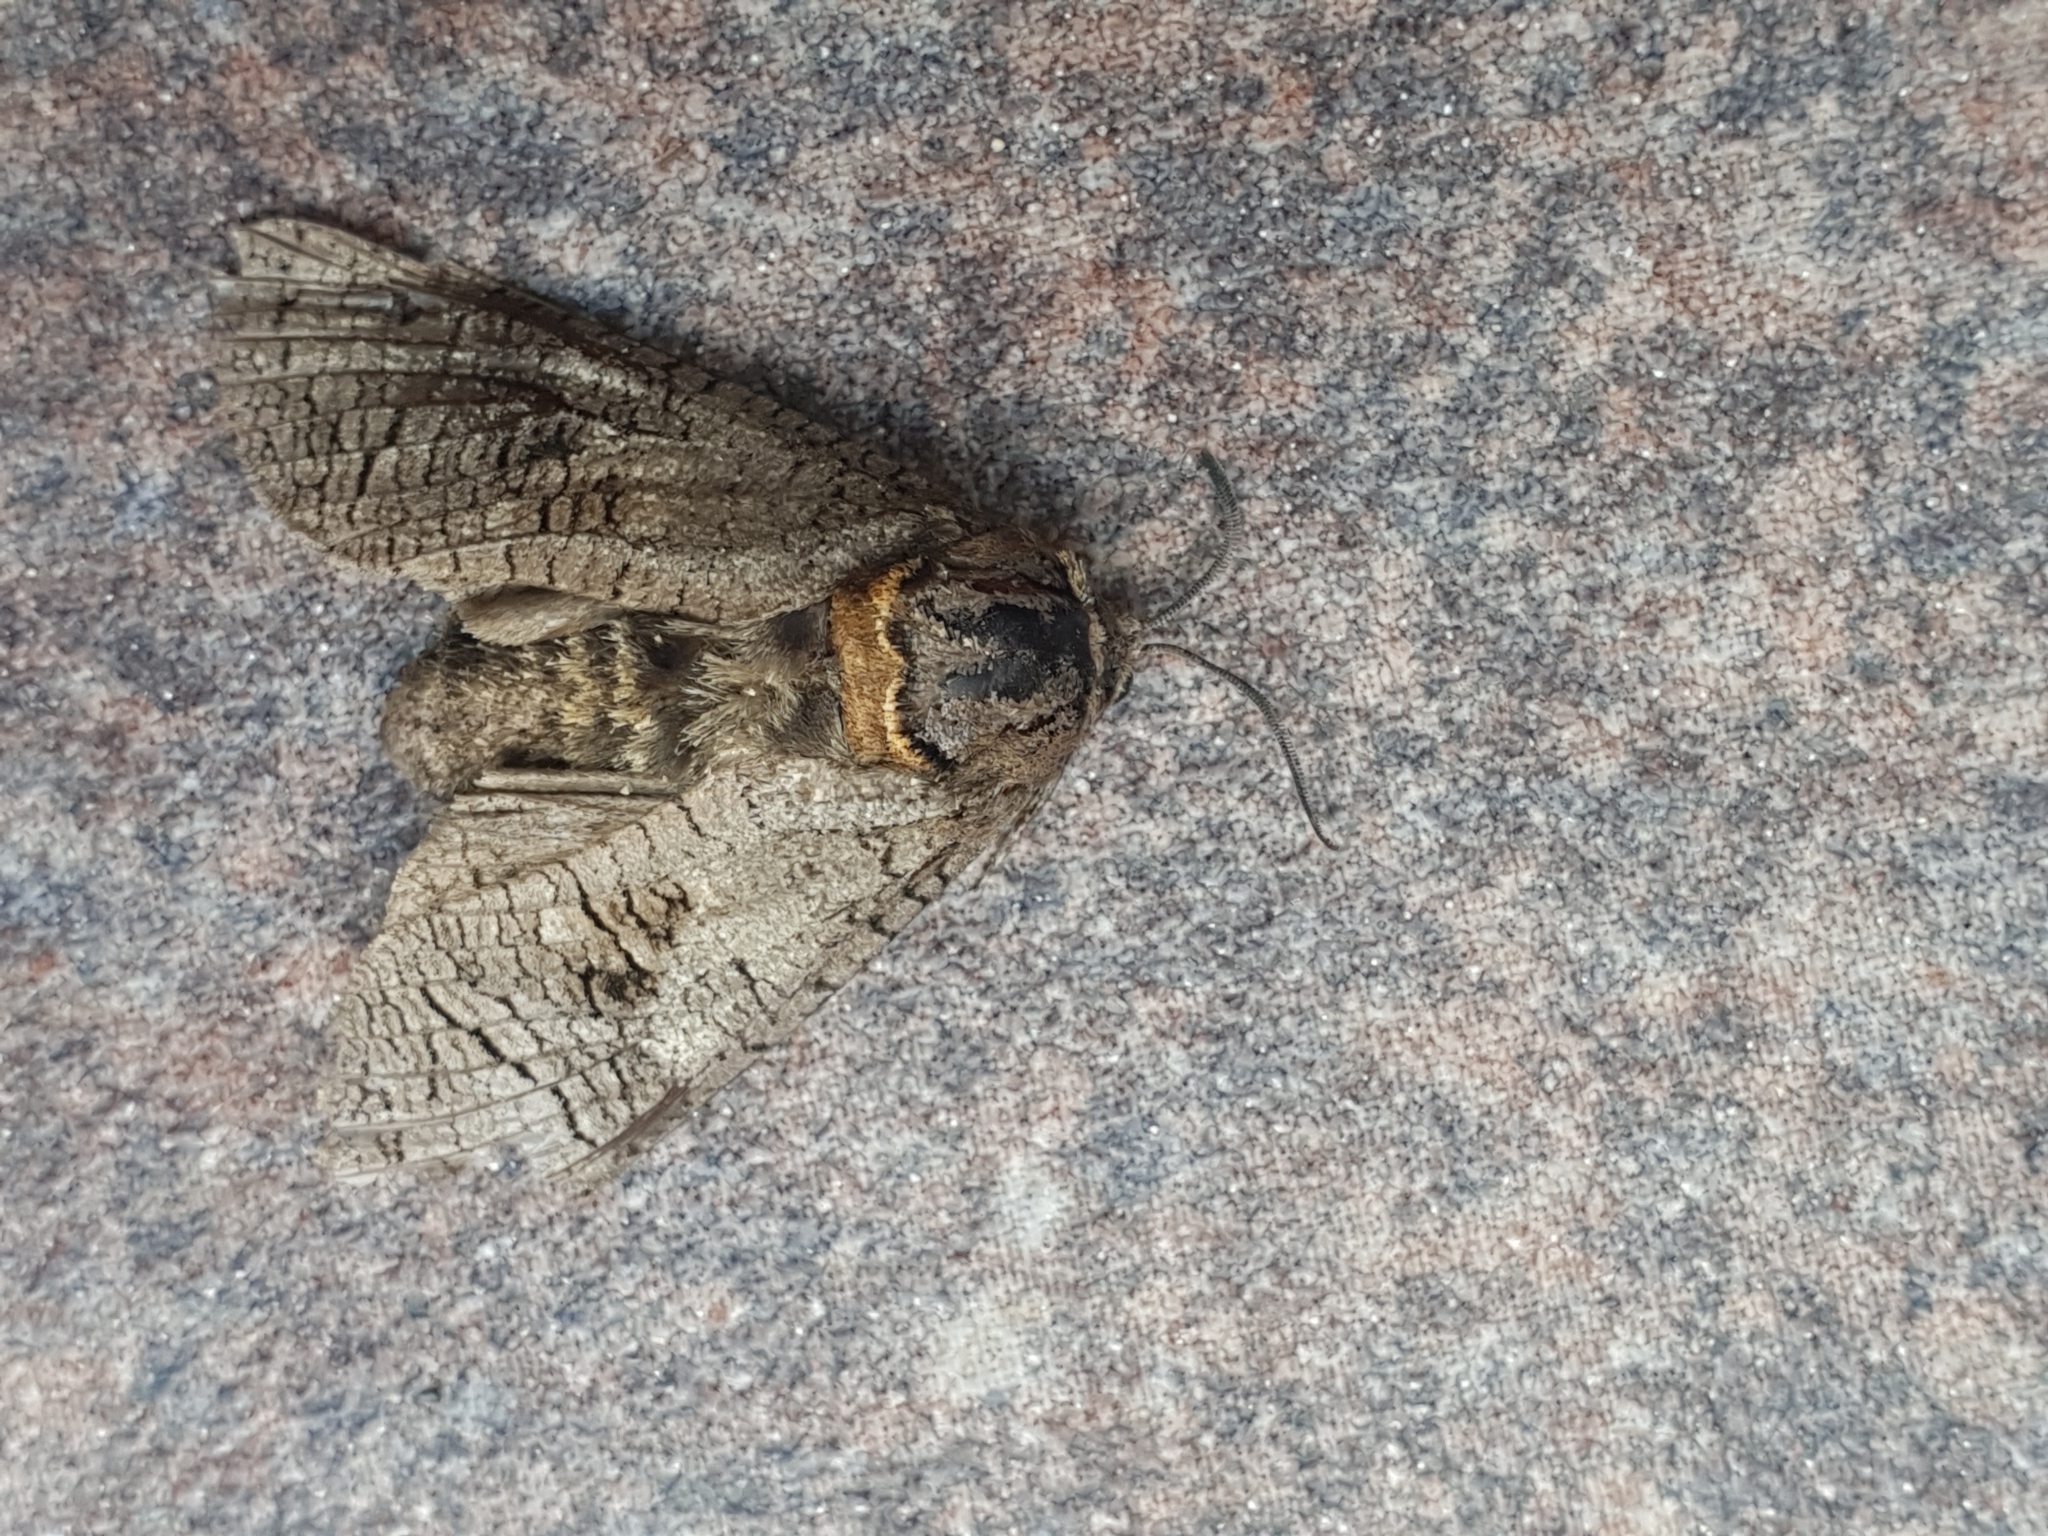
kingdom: Animalia
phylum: Arthropoda
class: Insecta
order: Lepidoptera
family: Cossidae
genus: Cossus
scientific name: Cossus cossus
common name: Goat moth
